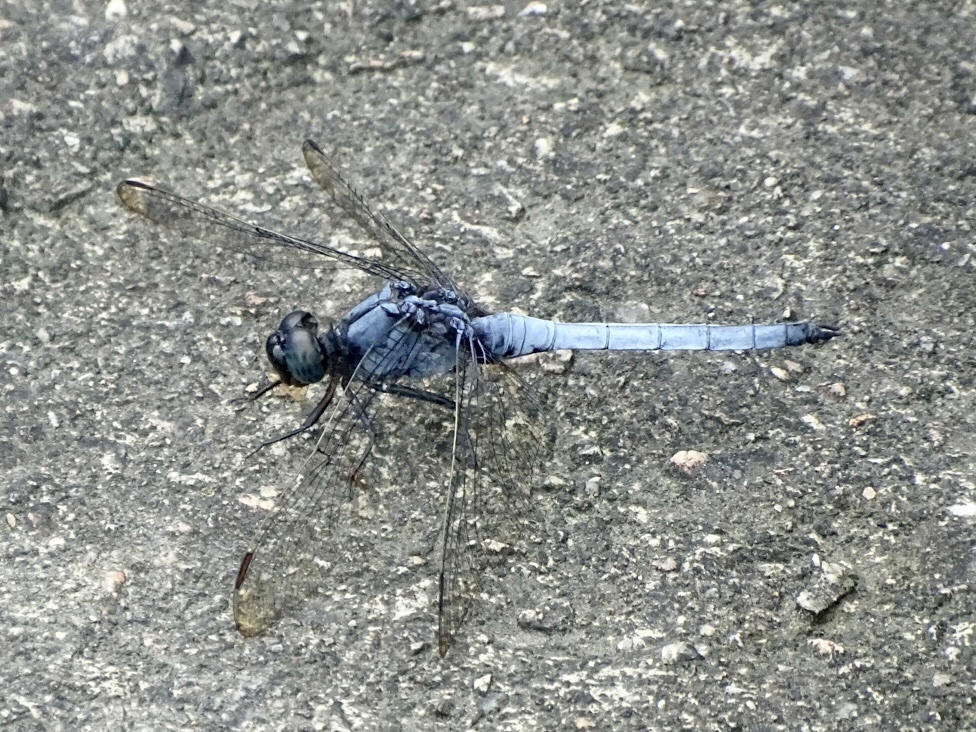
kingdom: Animalia
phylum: Arthropoda
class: Insecta
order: Odonata
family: Libellulidae
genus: Orthetrum
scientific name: Orthetrum glaucum
